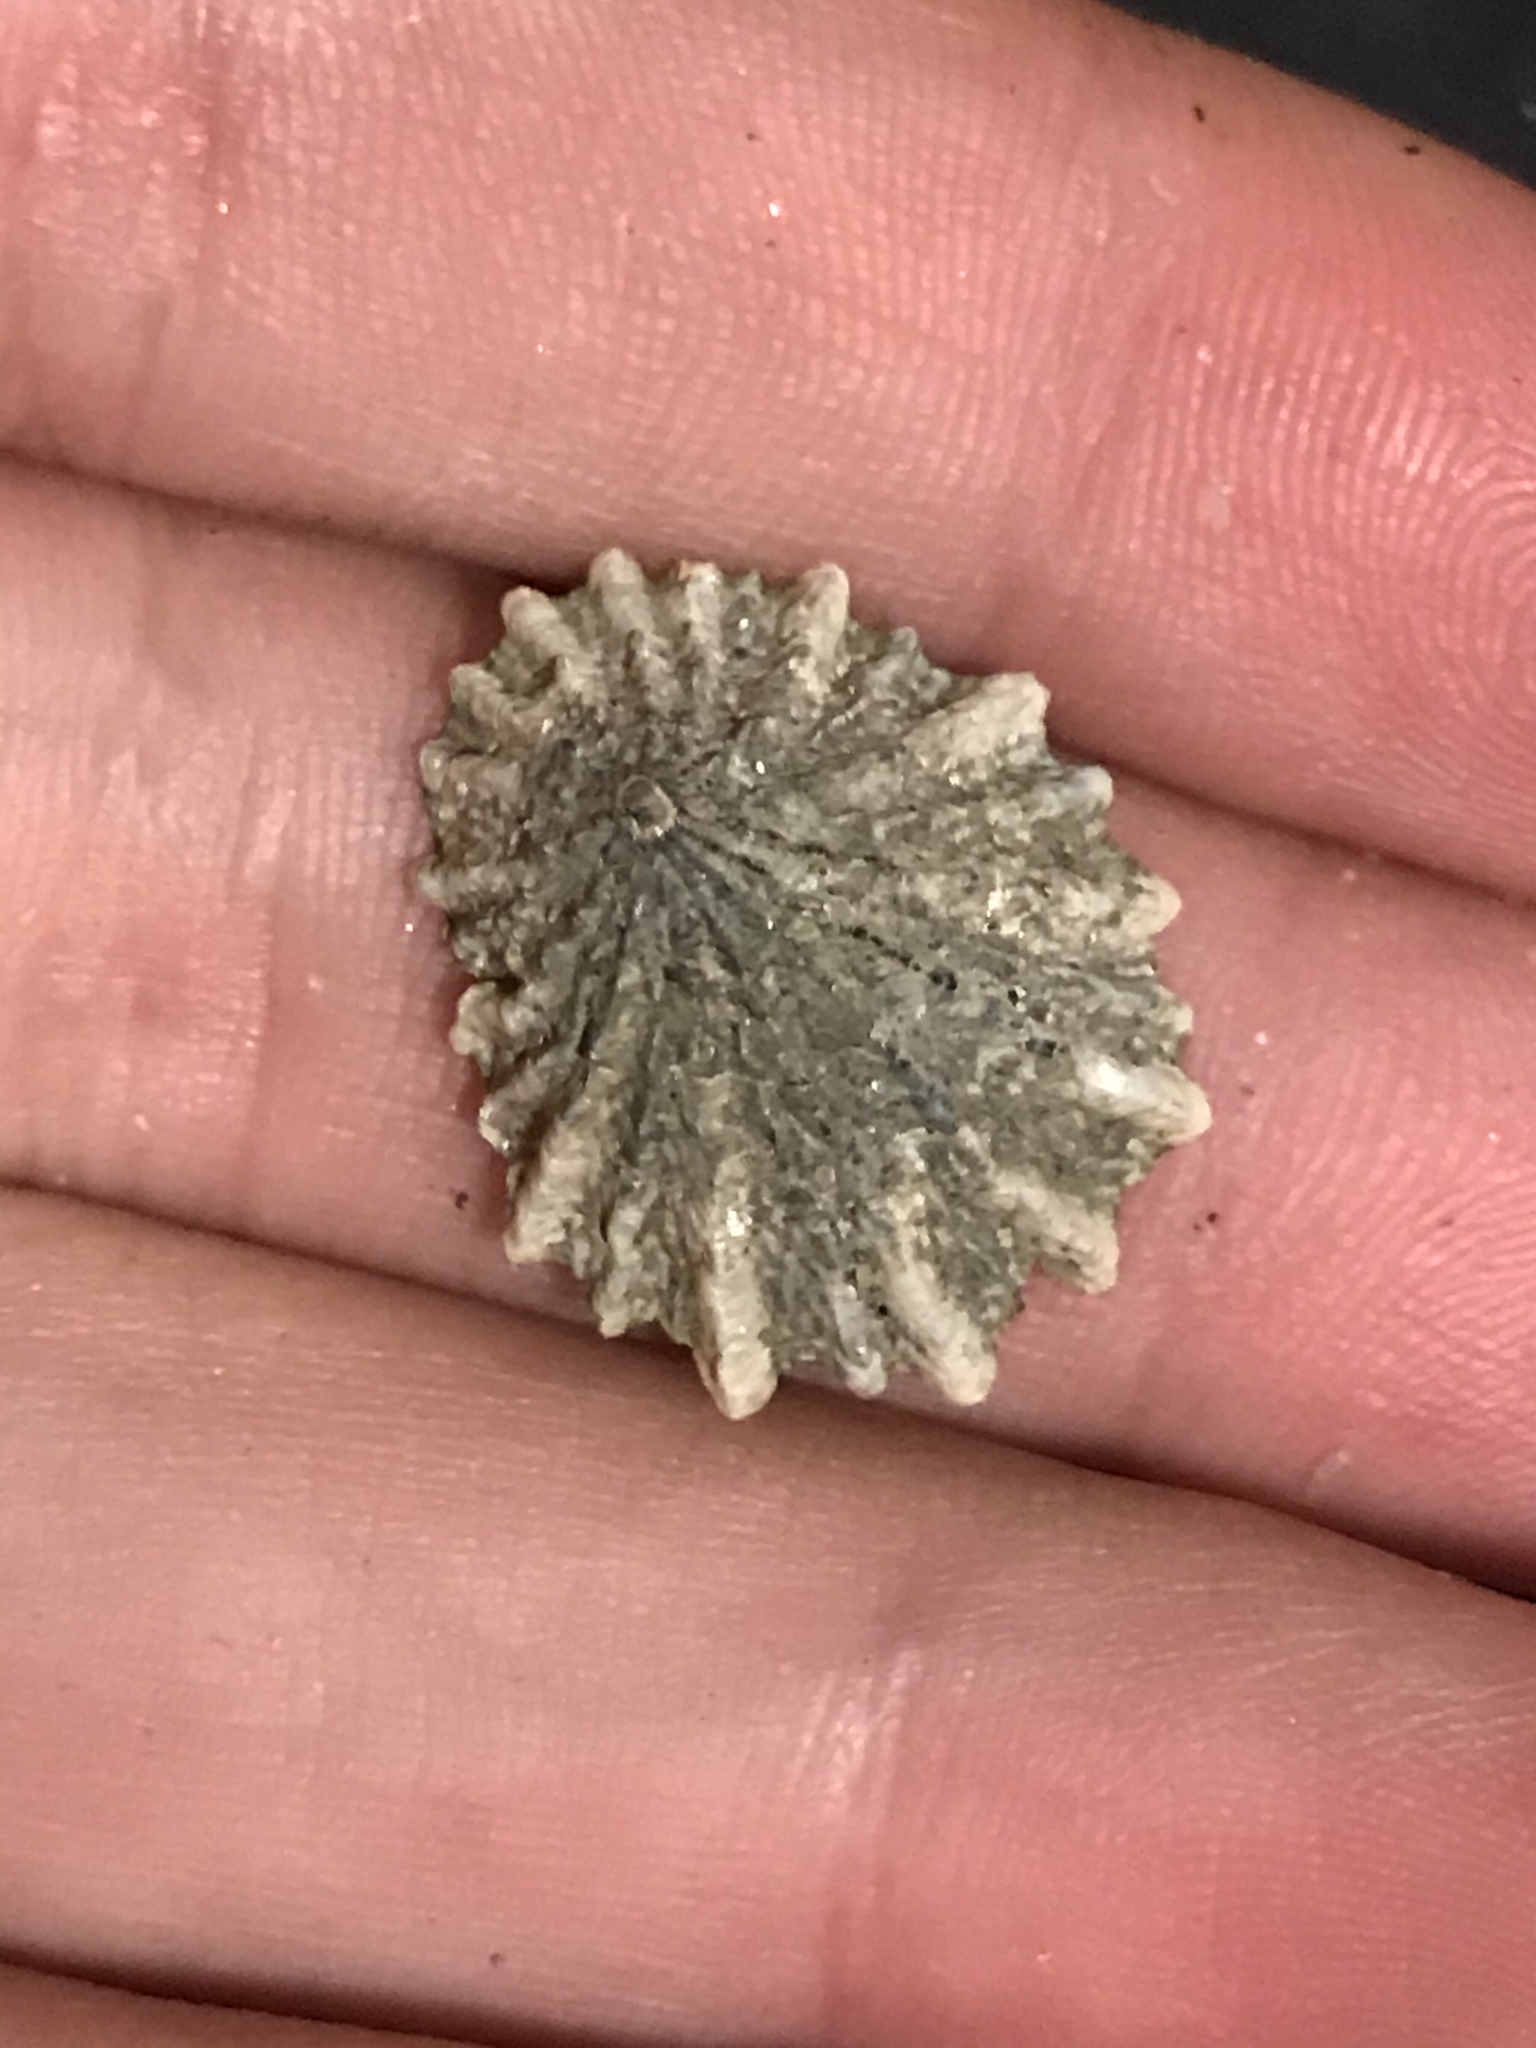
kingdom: Animalia
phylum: Mollusca
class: Gastropoda
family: Lottiidae
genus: Lottia
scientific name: Lottia scabra
